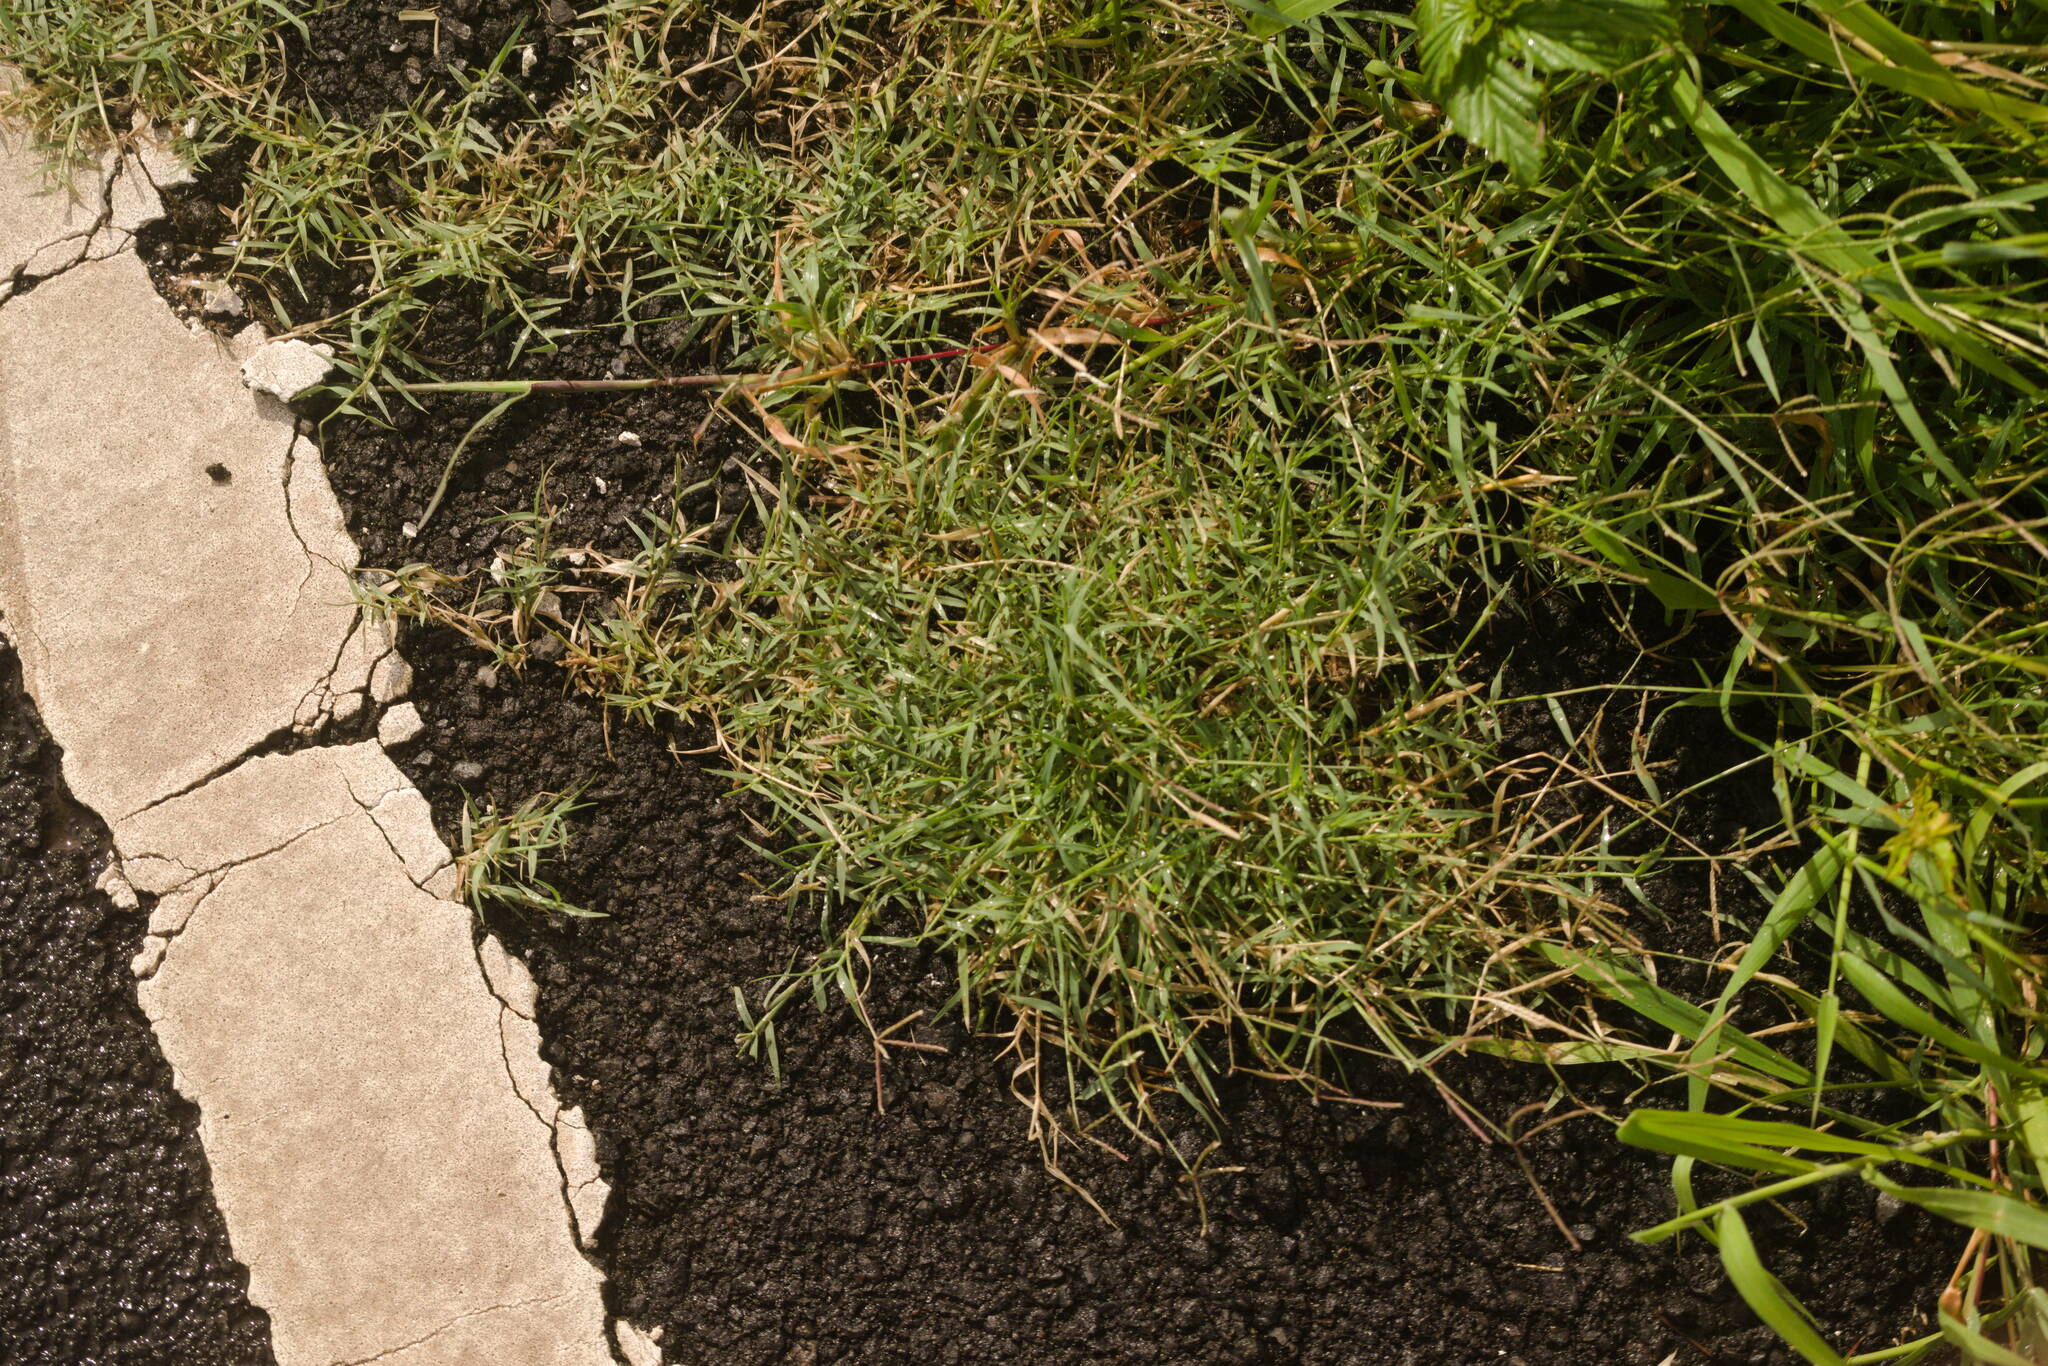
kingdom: Plantae
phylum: Tracheophyta
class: Liliopsida
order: Poales
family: Poaceae
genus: Cynodon
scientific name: Cynodon dactylon
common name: Bermuda grass
